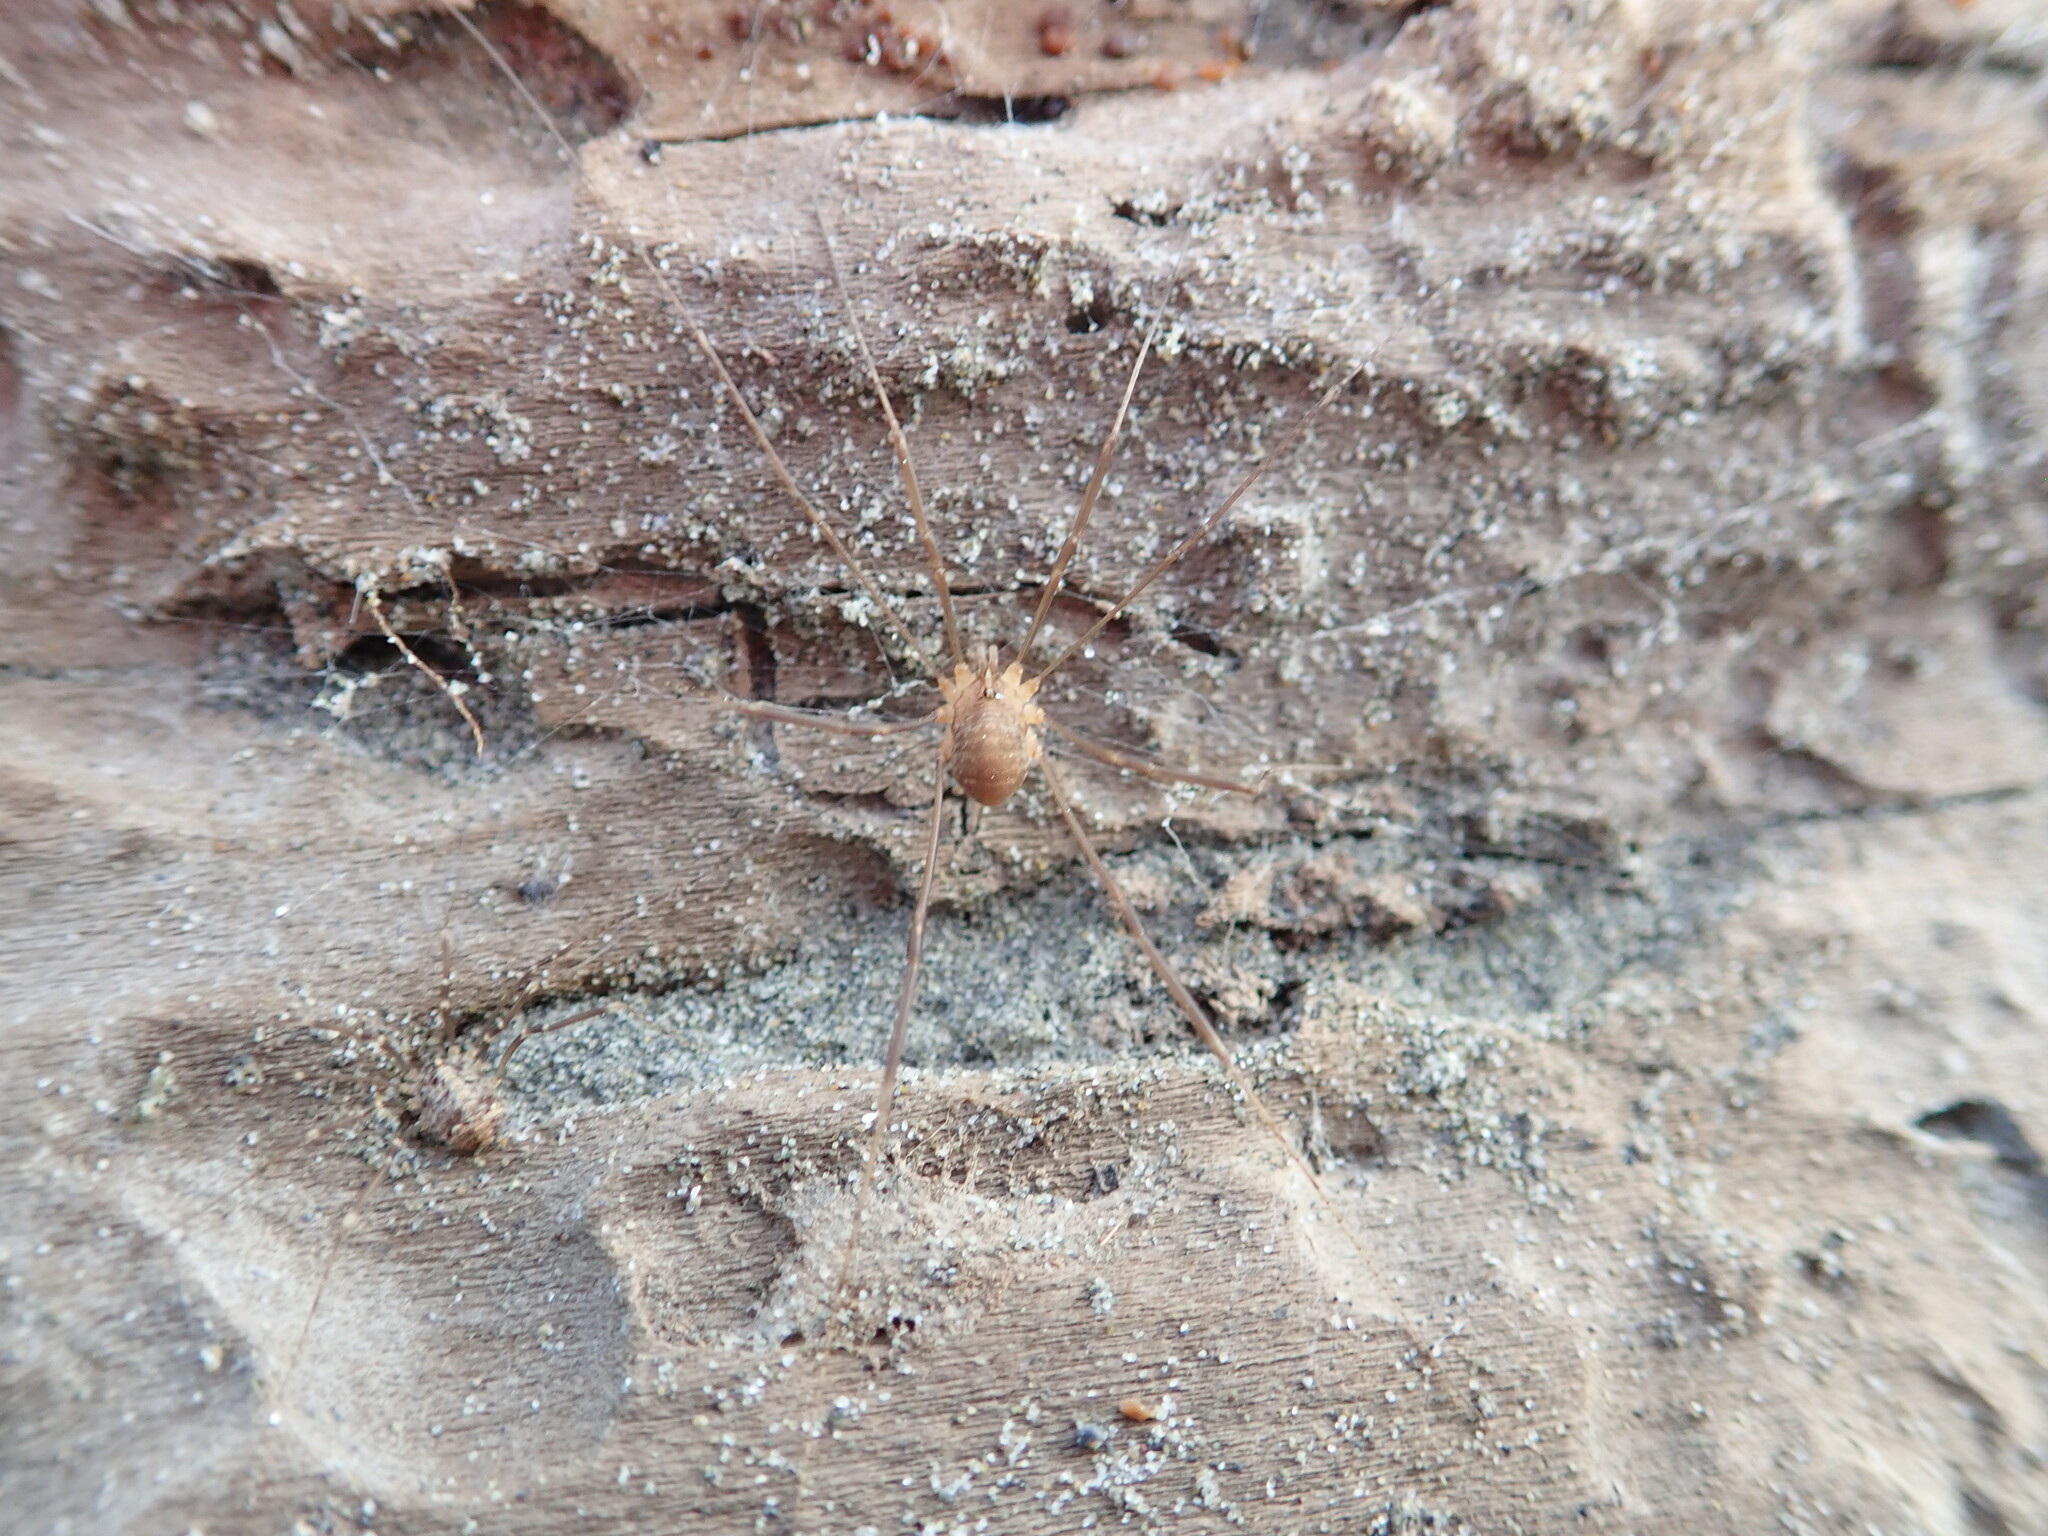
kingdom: Animalia
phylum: Arthropoda
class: Arachnida
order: Opiliones
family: Sclerosomatidae
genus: Nelima
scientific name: Nelima doriae
